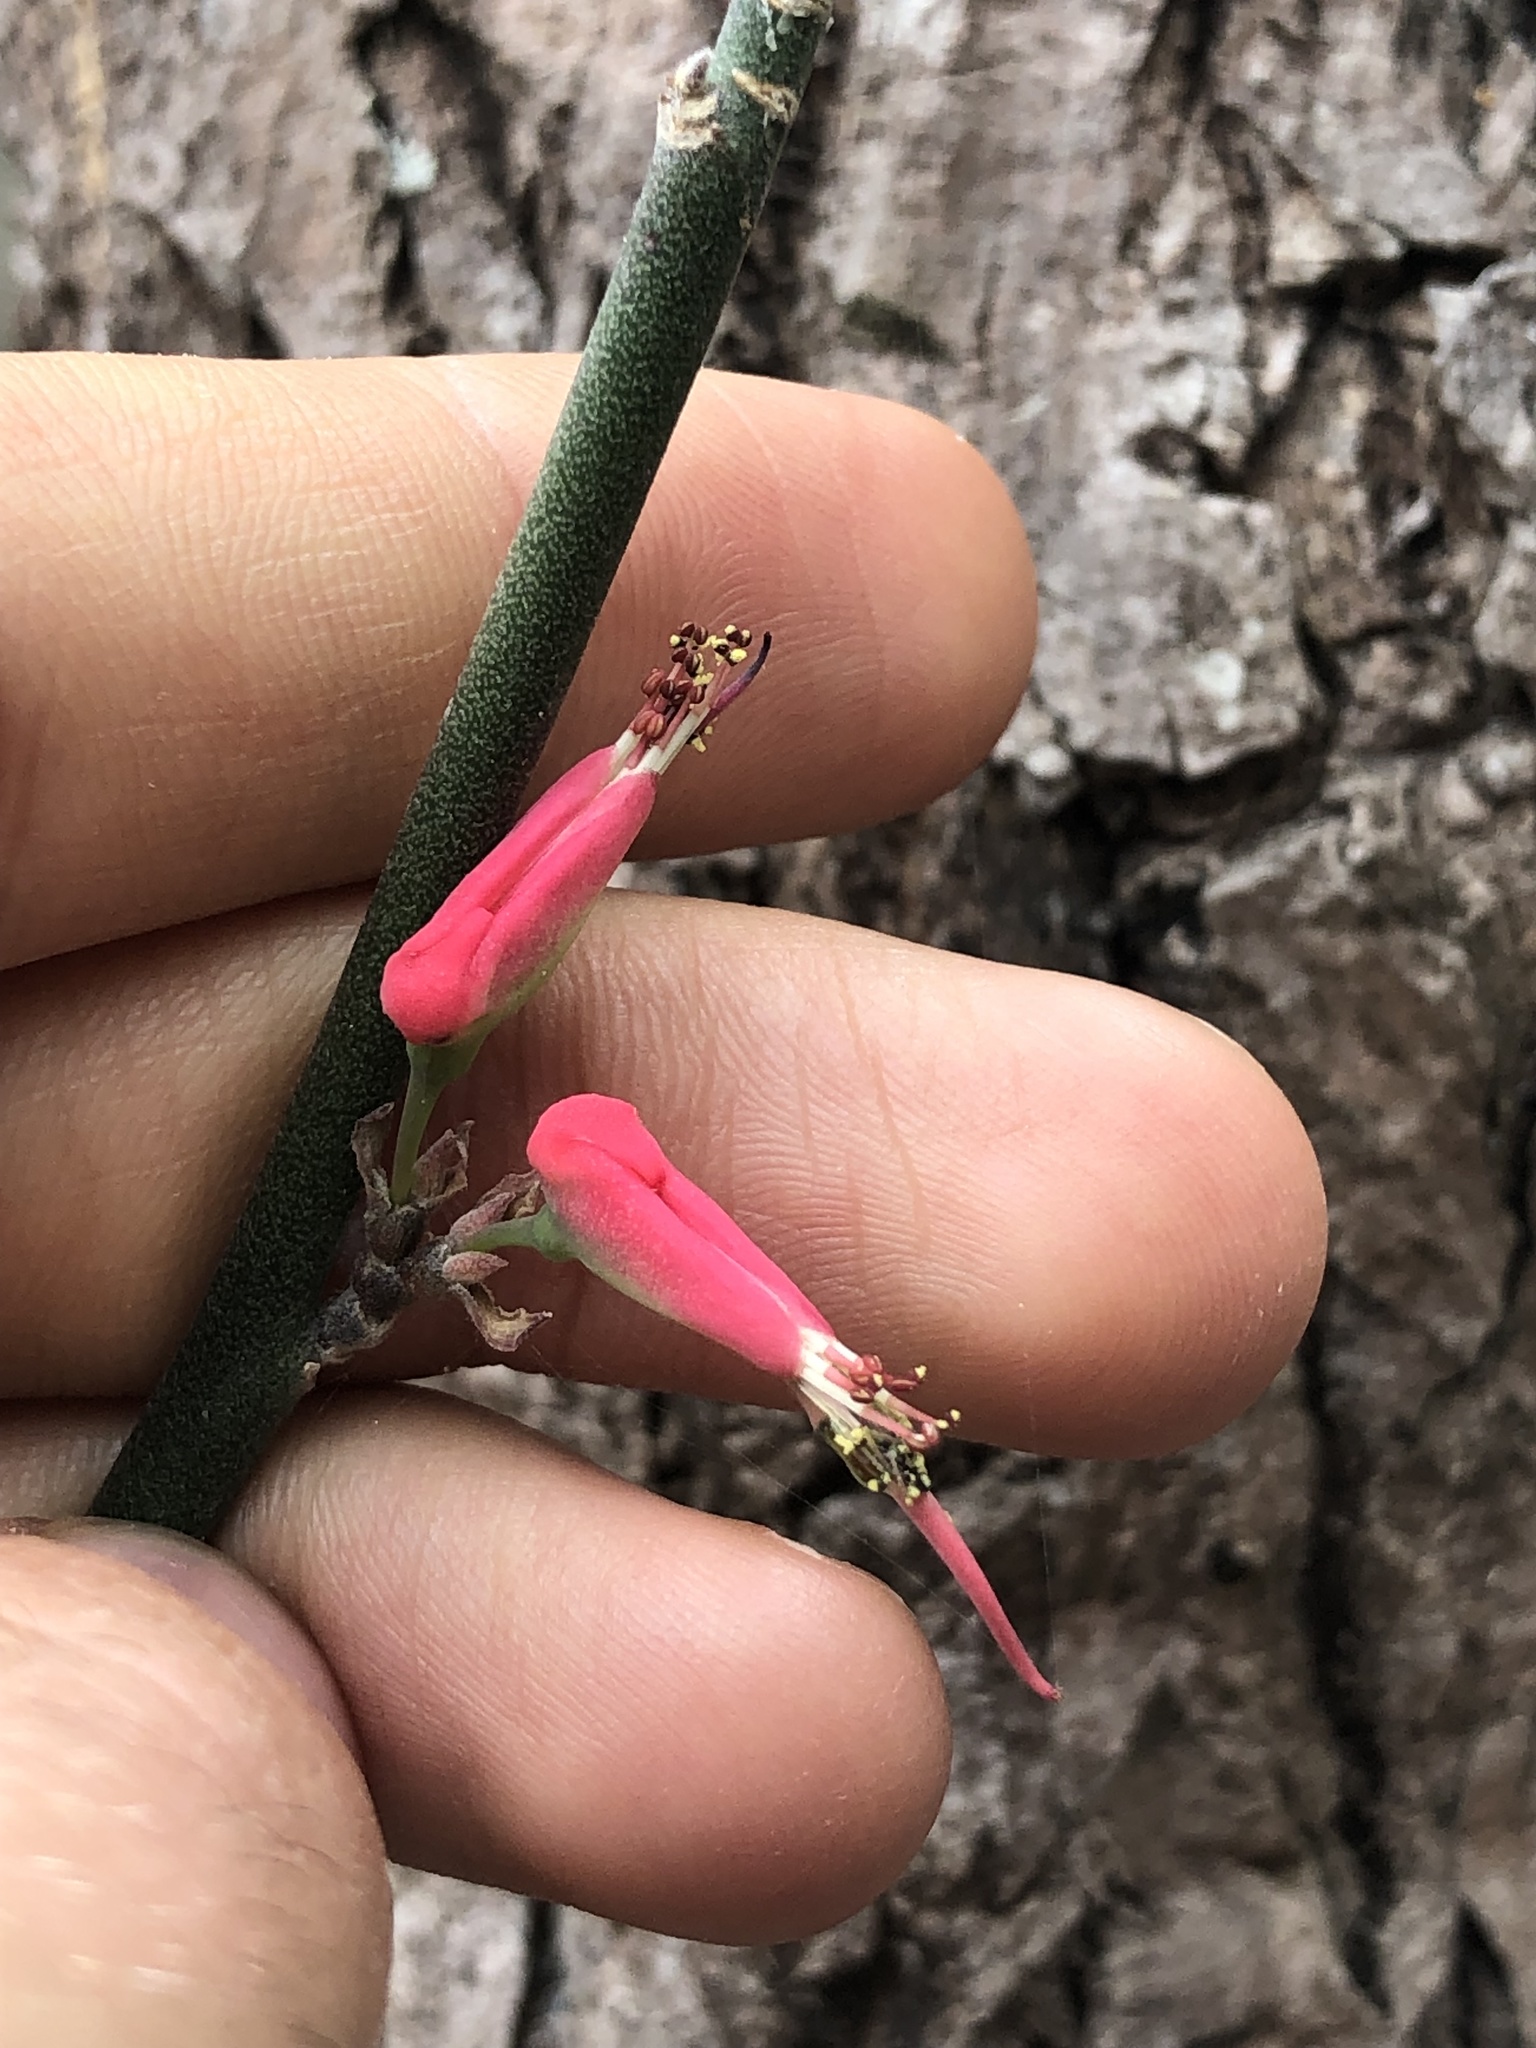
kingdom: Plantae
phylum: Tracheophyta
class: Magnoliopsida
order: Malpighiales
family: Euphorbiaceae
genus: Euphorbia
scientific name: Euphorbia tithymaloides
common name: Slipperplant
